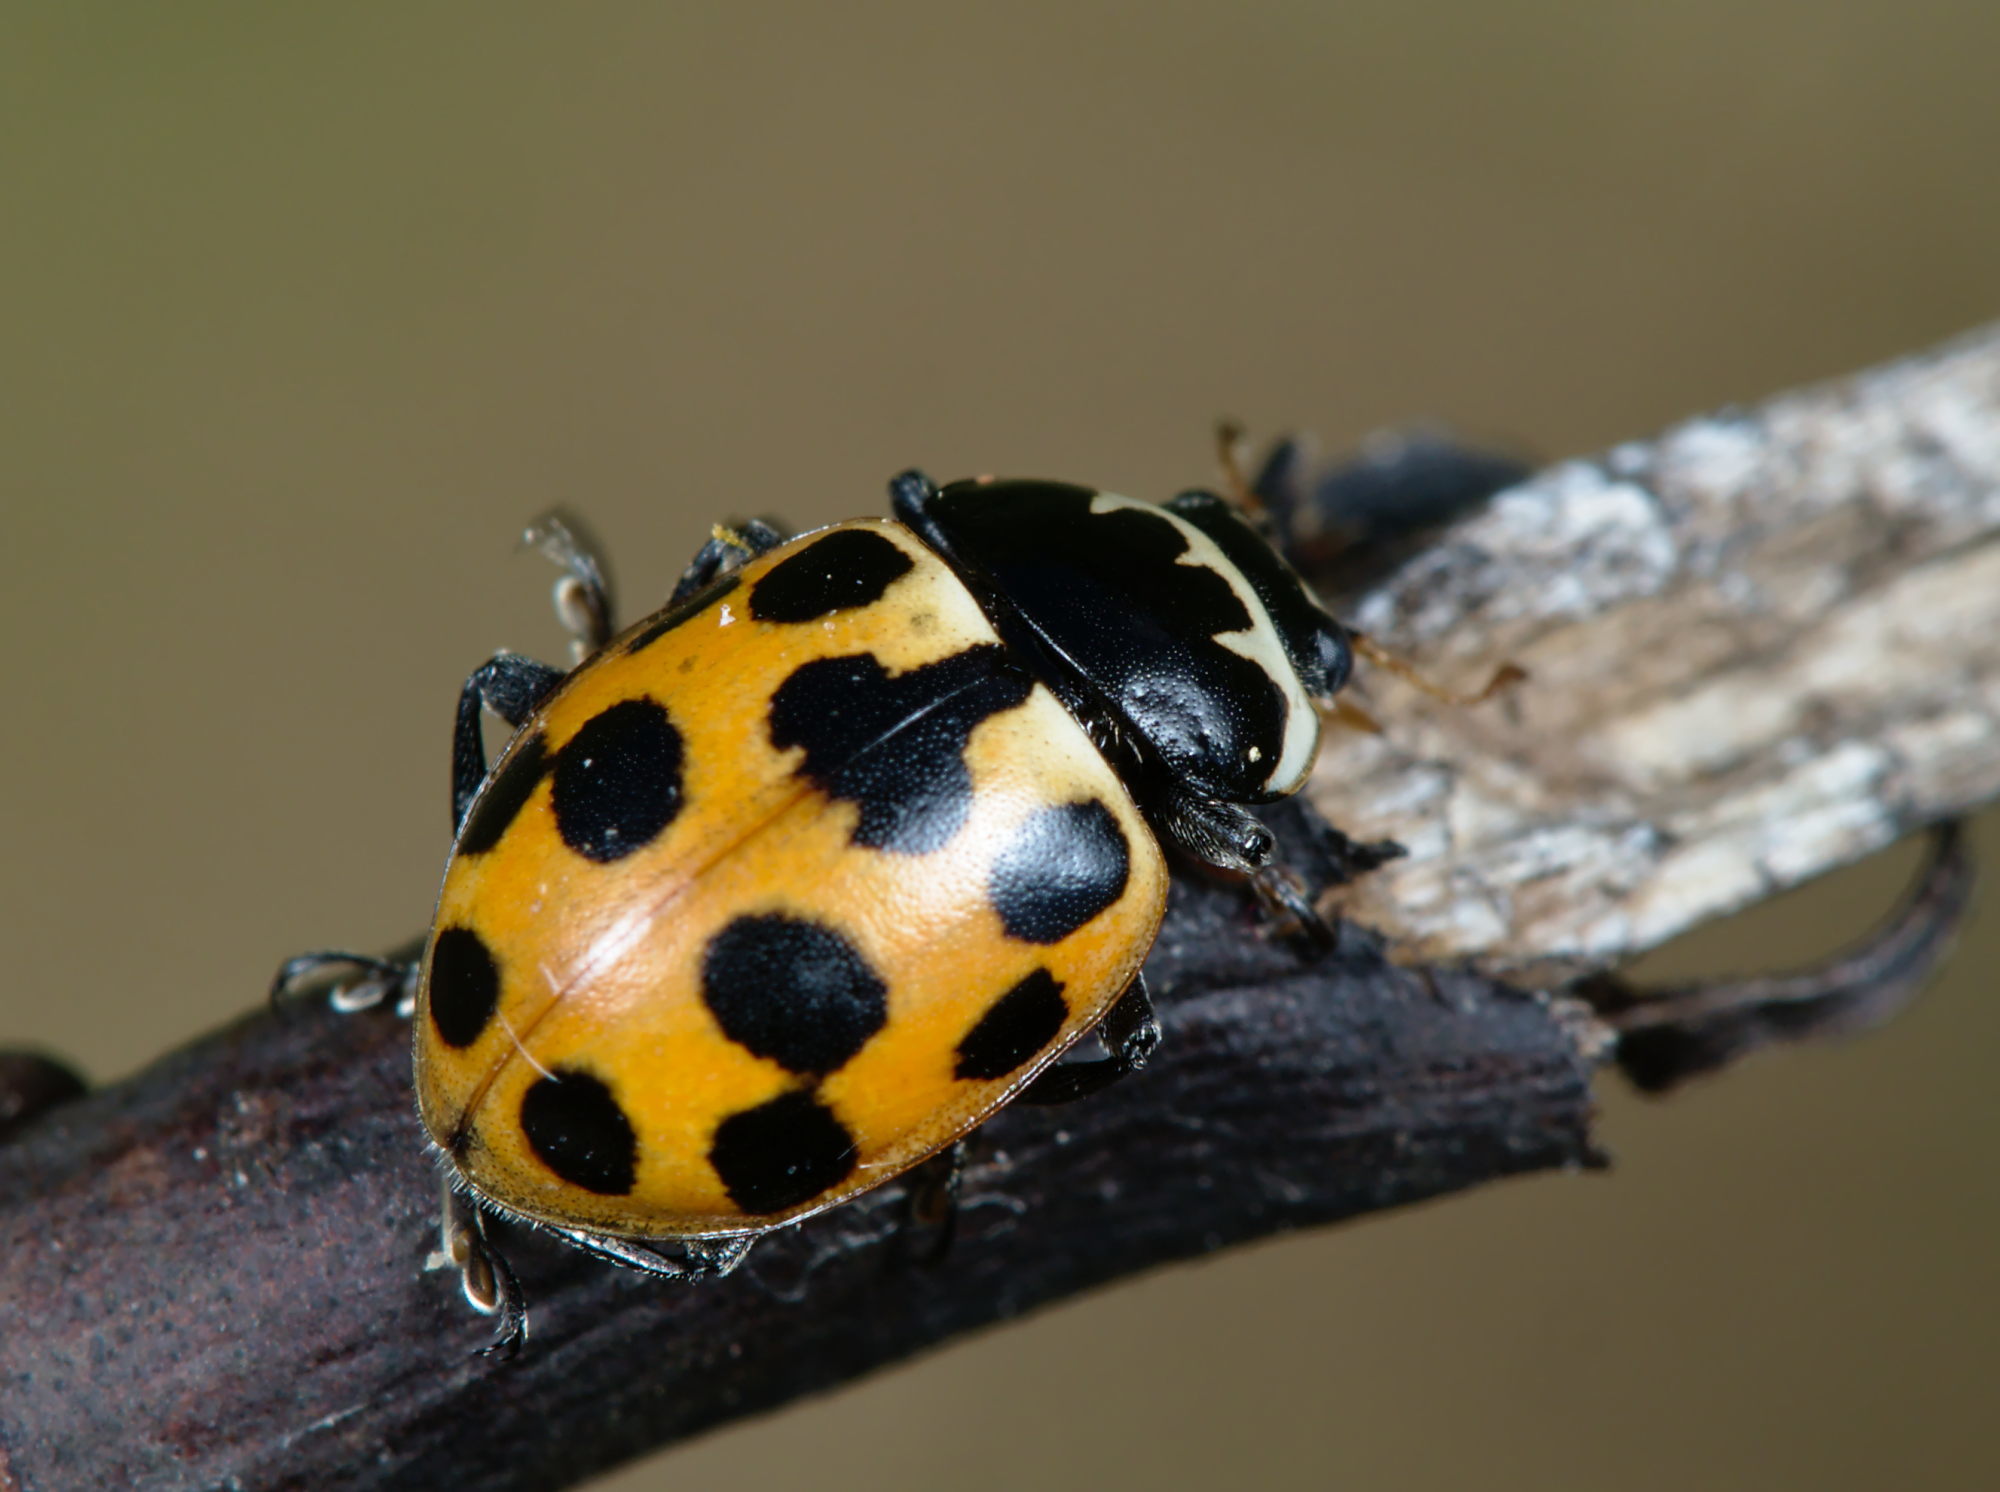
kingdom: Animalia
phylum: Arthropoda
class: Insecta
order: Coleoptera
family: Coccinellidae
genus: Ceratomegilla
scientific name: Ceratomegilla notata
